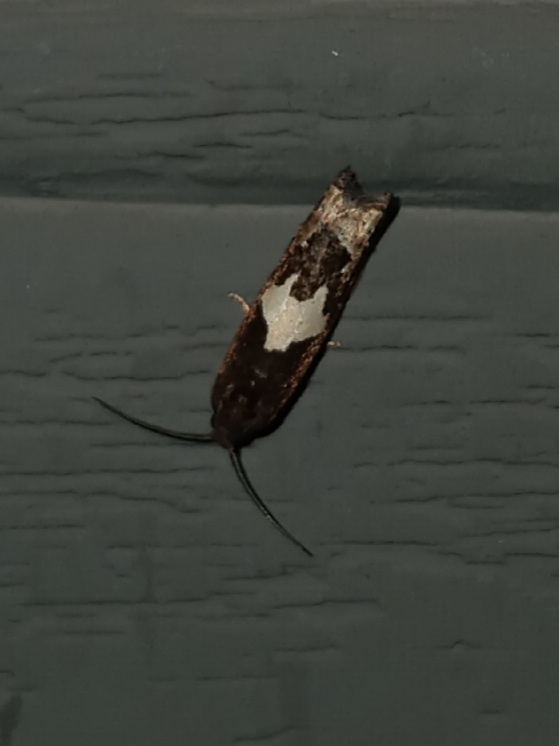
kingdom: Animalia
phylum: Arthropoda
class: Insecta
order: Lepidoptera
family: Tortricidae
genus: Epiblema
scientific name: Epiblema otiosana
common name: Bidens borer moth
